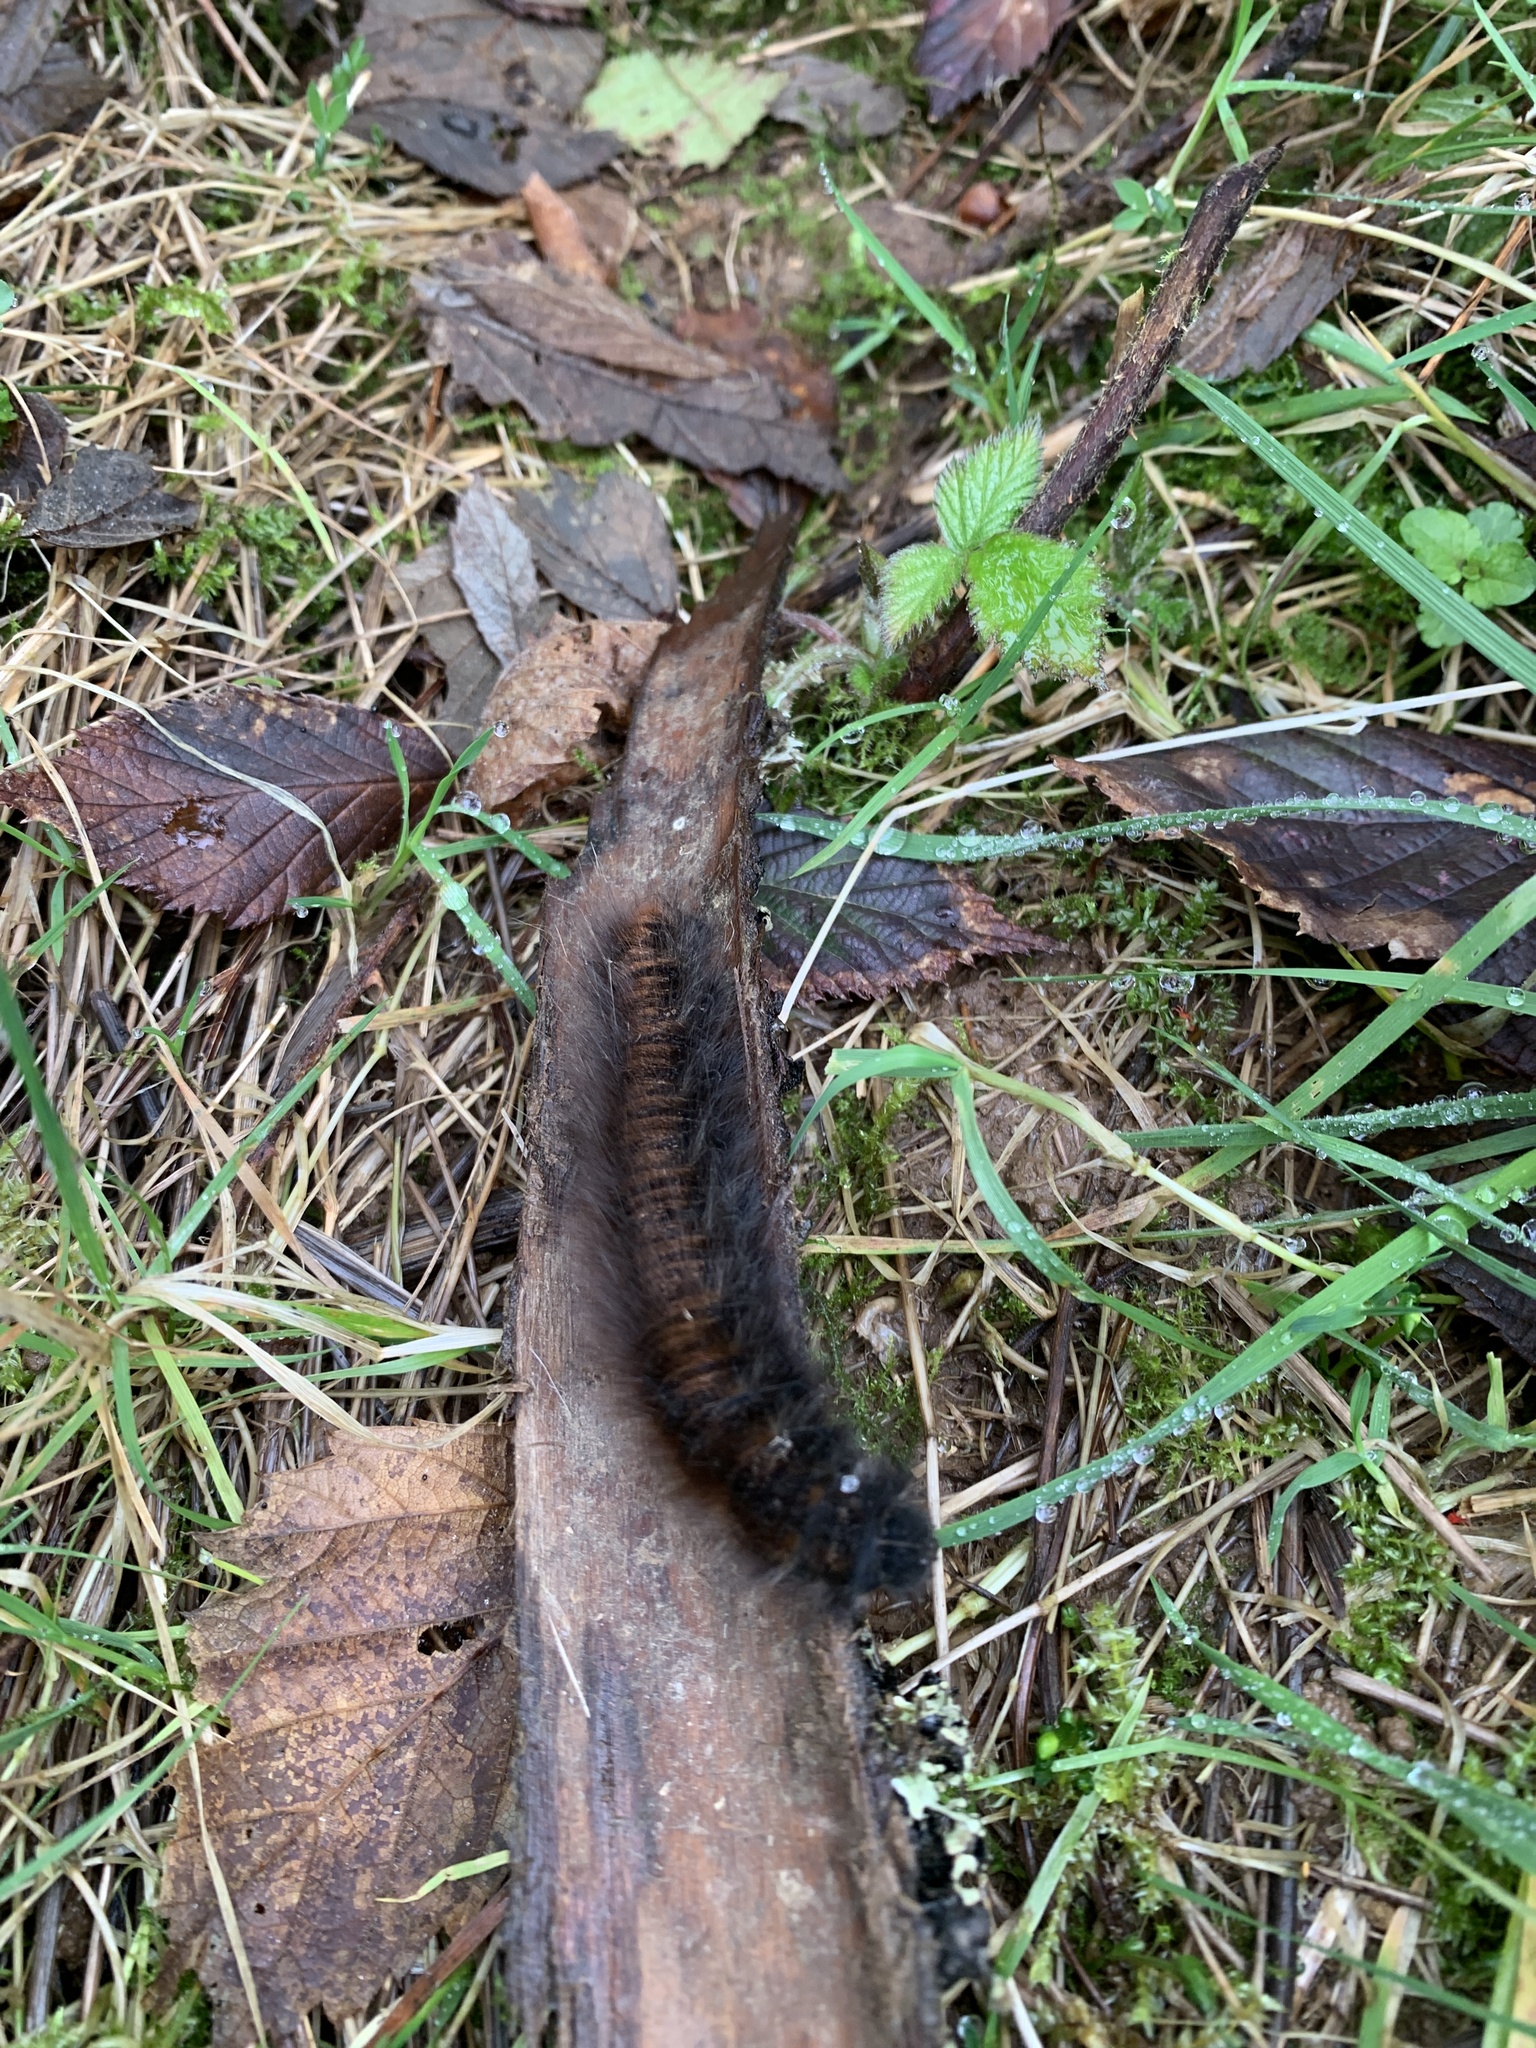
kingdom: Animalia
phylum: Arthropoda
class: Insecta
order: Lepidoptera
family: Lasiocampidae
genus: Macrothylacia
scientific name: Macrothylacia rubi
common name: Fox moth
